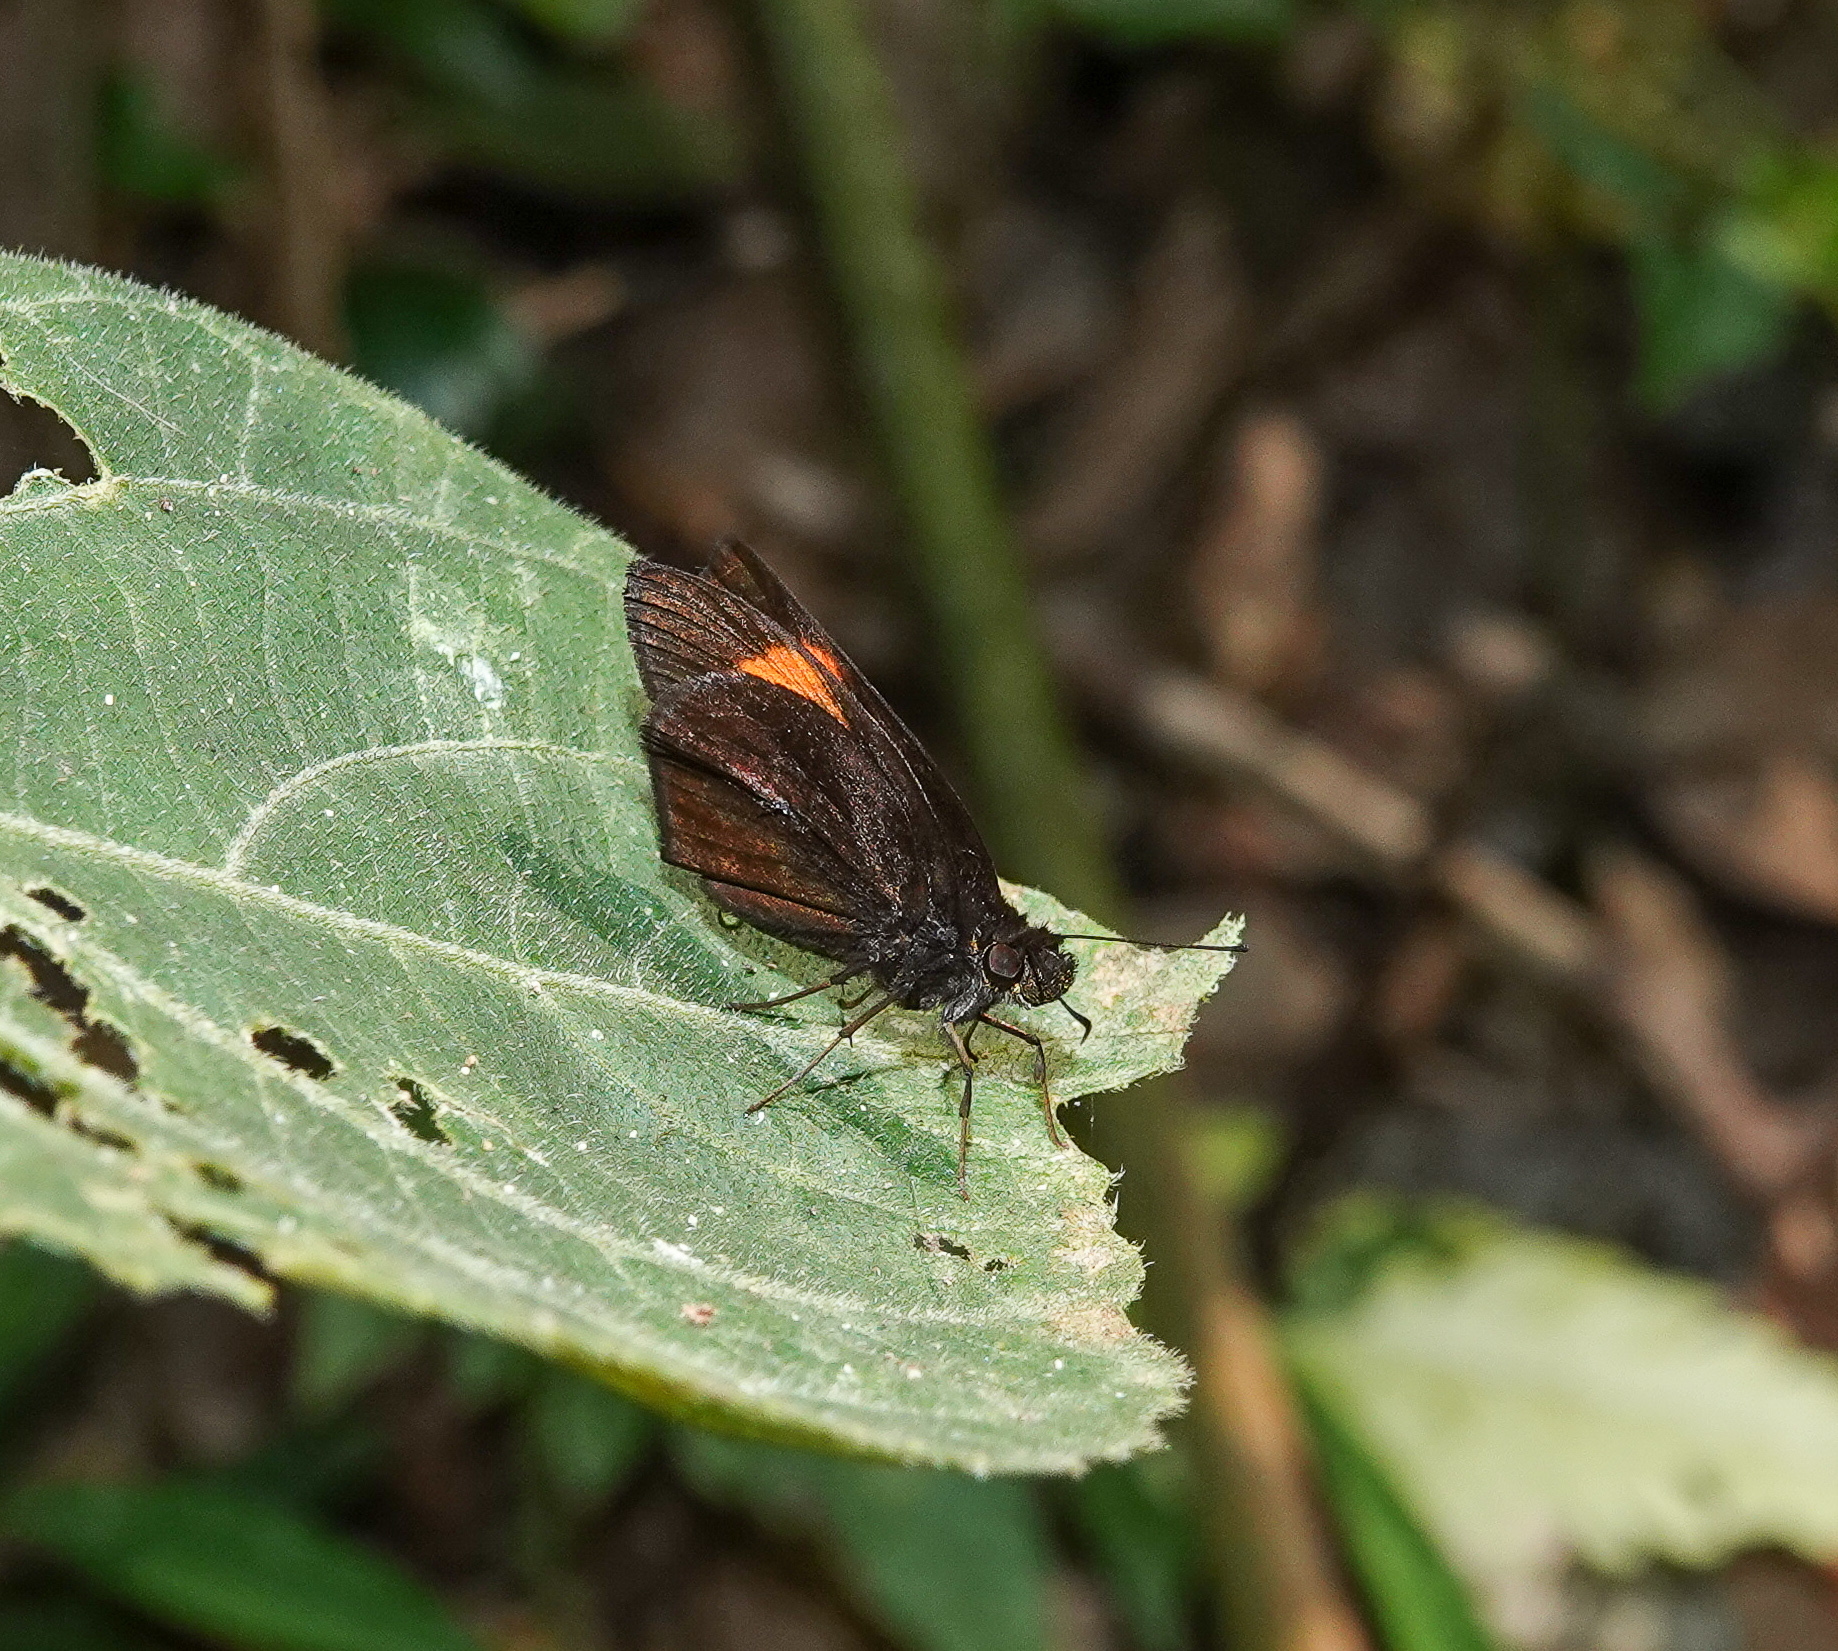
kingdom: Animalia
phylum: Arthropoda
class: Insecta
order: Lepidoptera
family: Hesperiidae
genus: Koruthaialos
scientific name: Koruthaialos sindu
